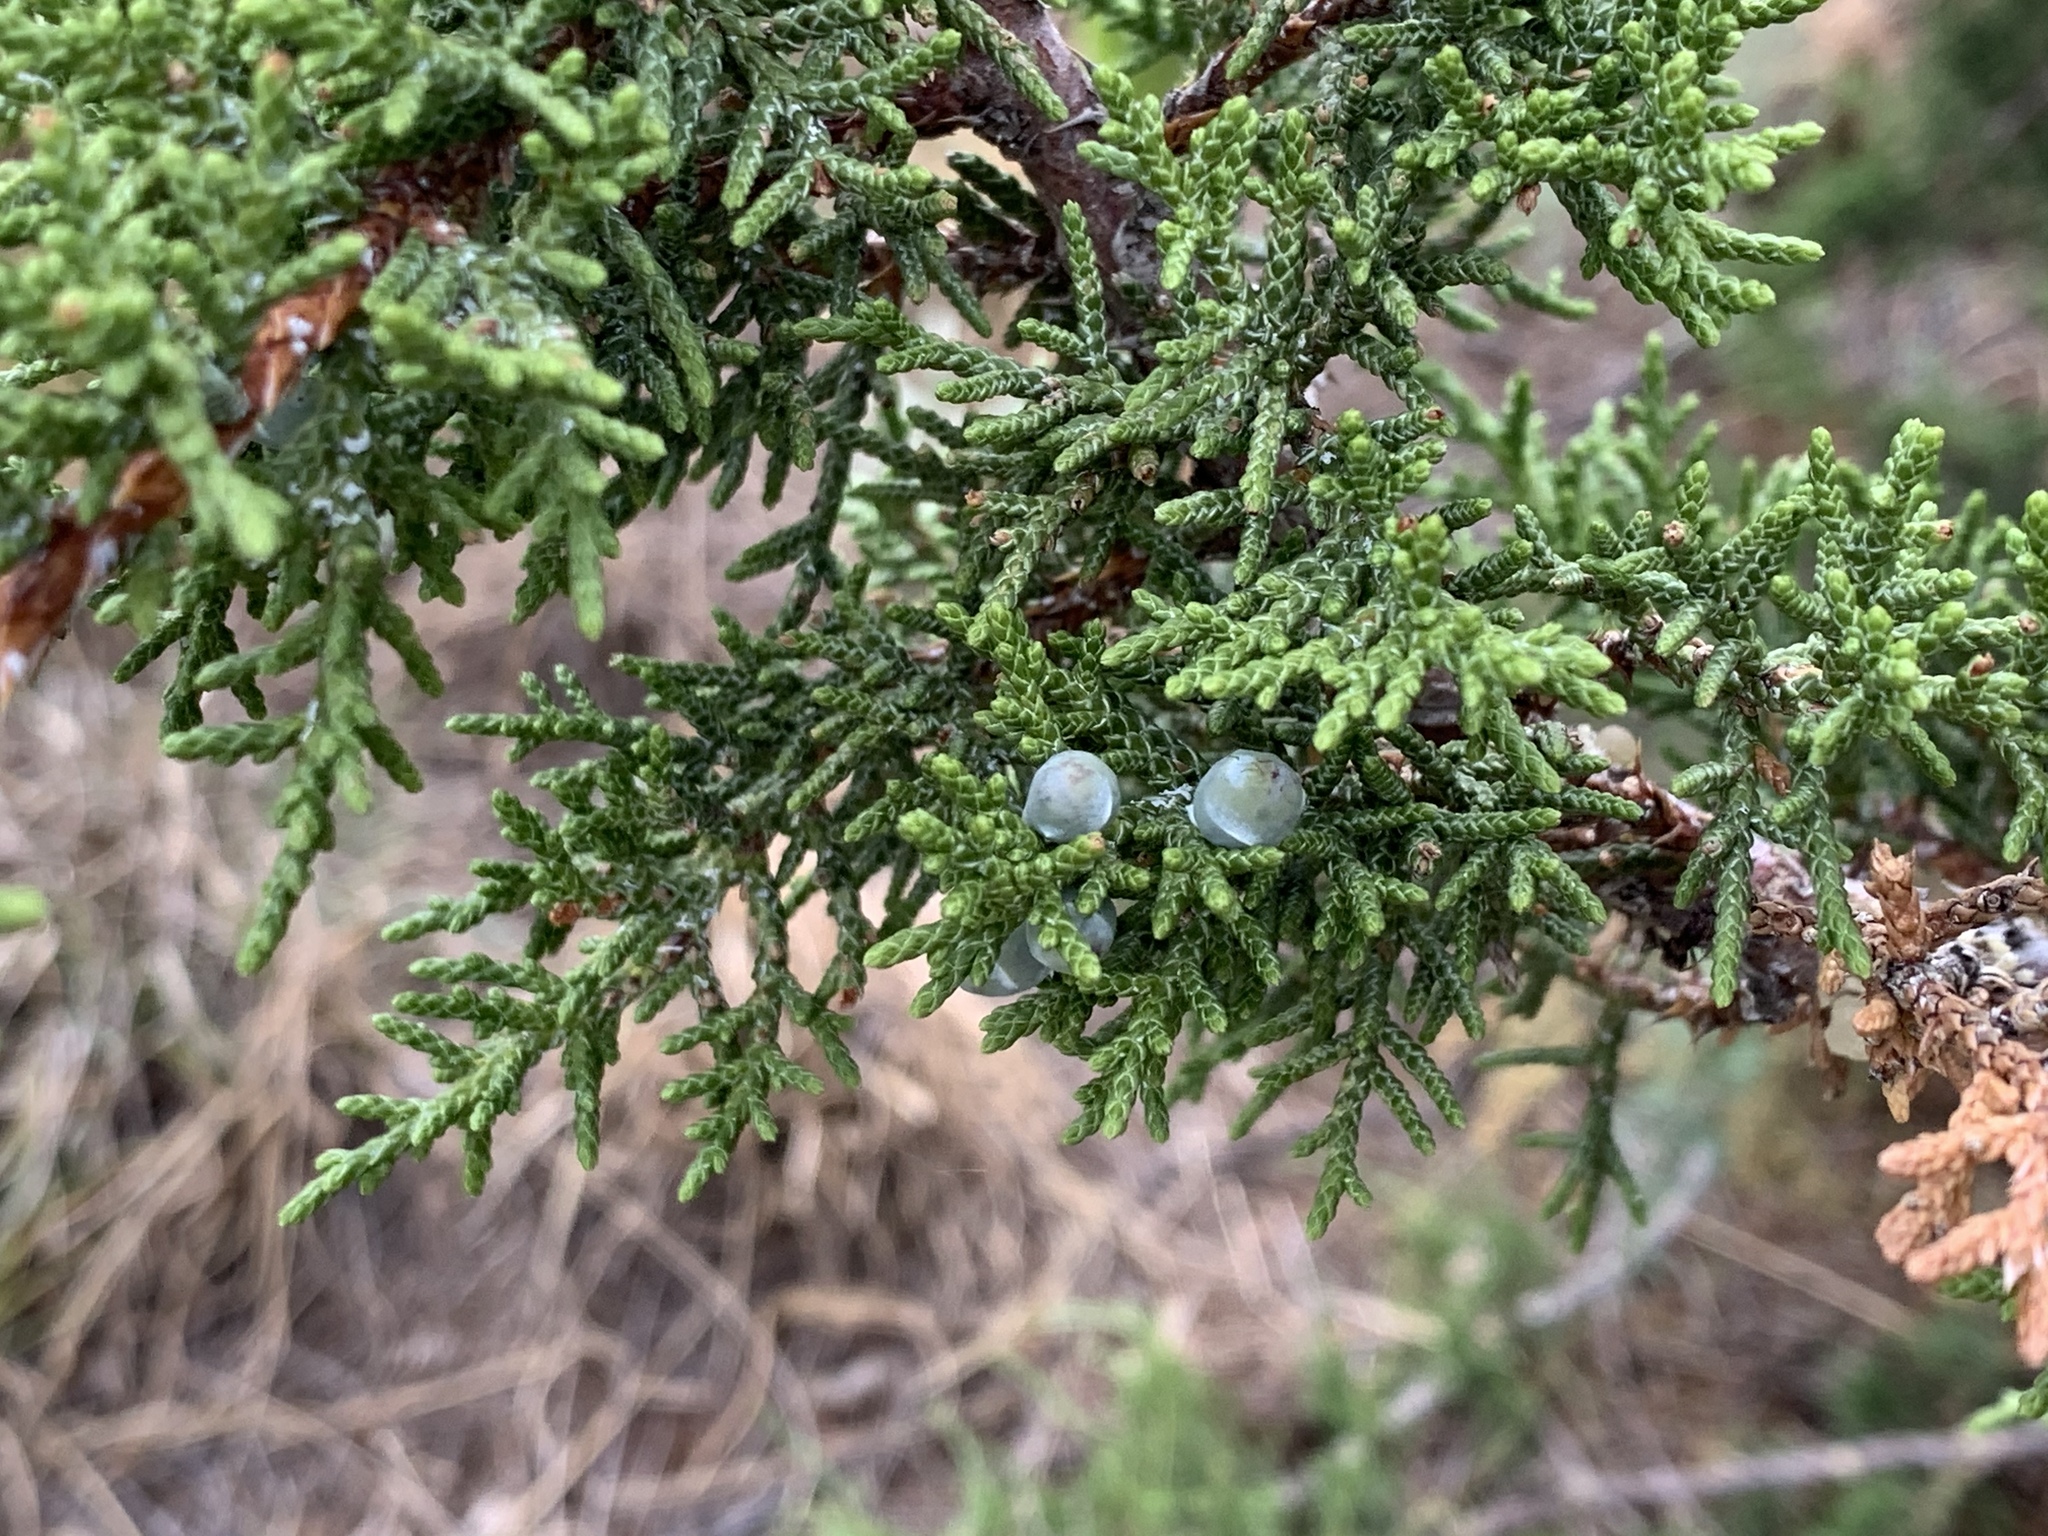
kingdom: Plantae
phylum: Tracheophyta
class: Pinopsida
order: Pinales
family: Cupressaceae
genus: Juniperus
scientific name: Juniperus monosperma
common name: One-seed juniper
